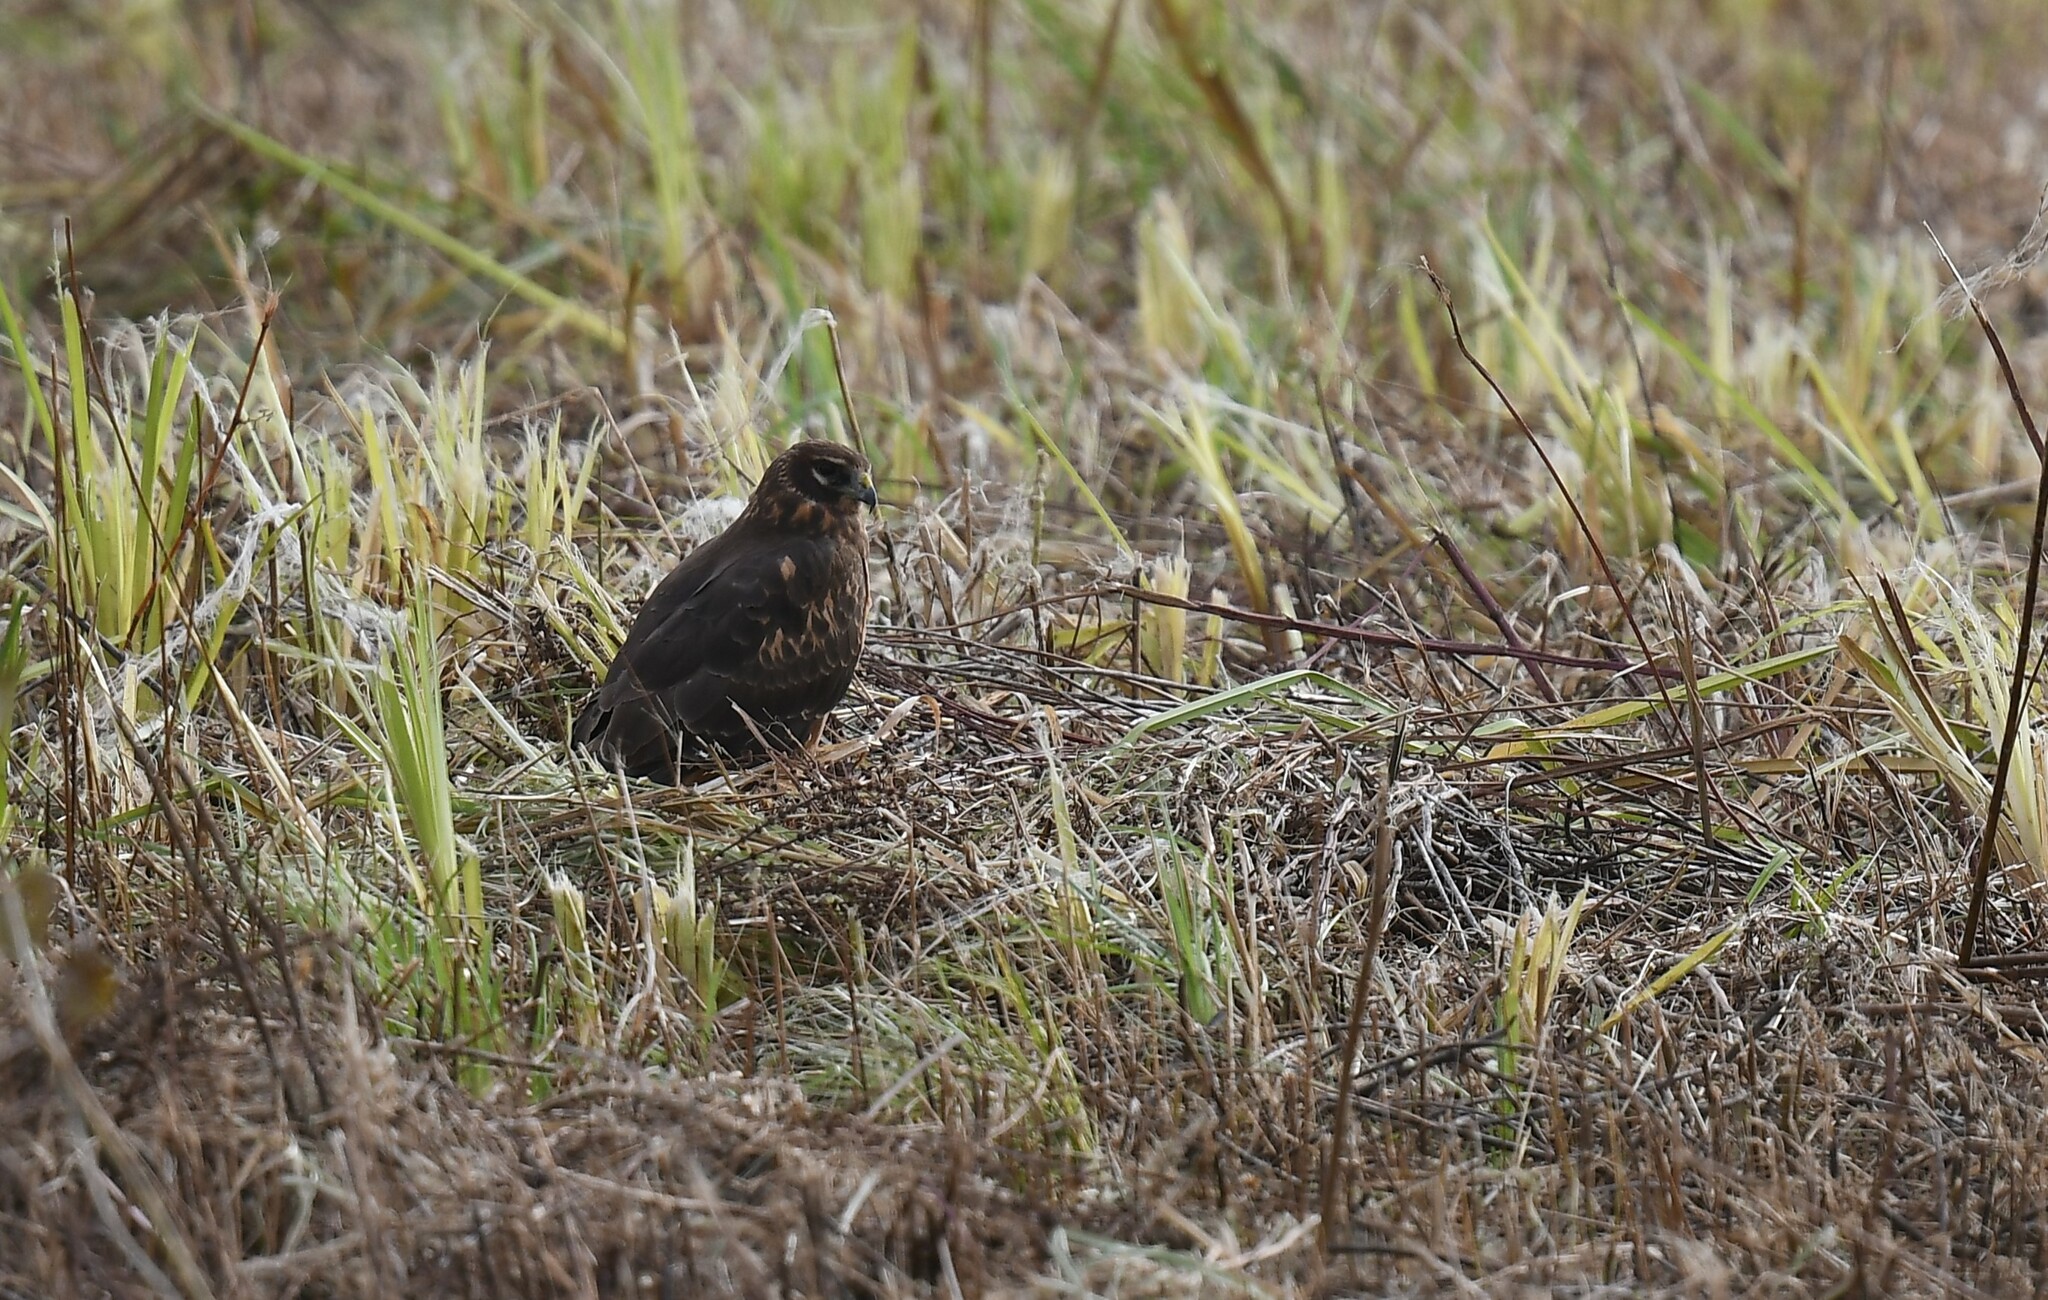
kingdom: Animalia
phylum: Chordata
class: Aves
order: Accipitriformes
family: Accipitridae
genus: Circus
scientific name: Circus cyaneus
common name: Hen harrier
